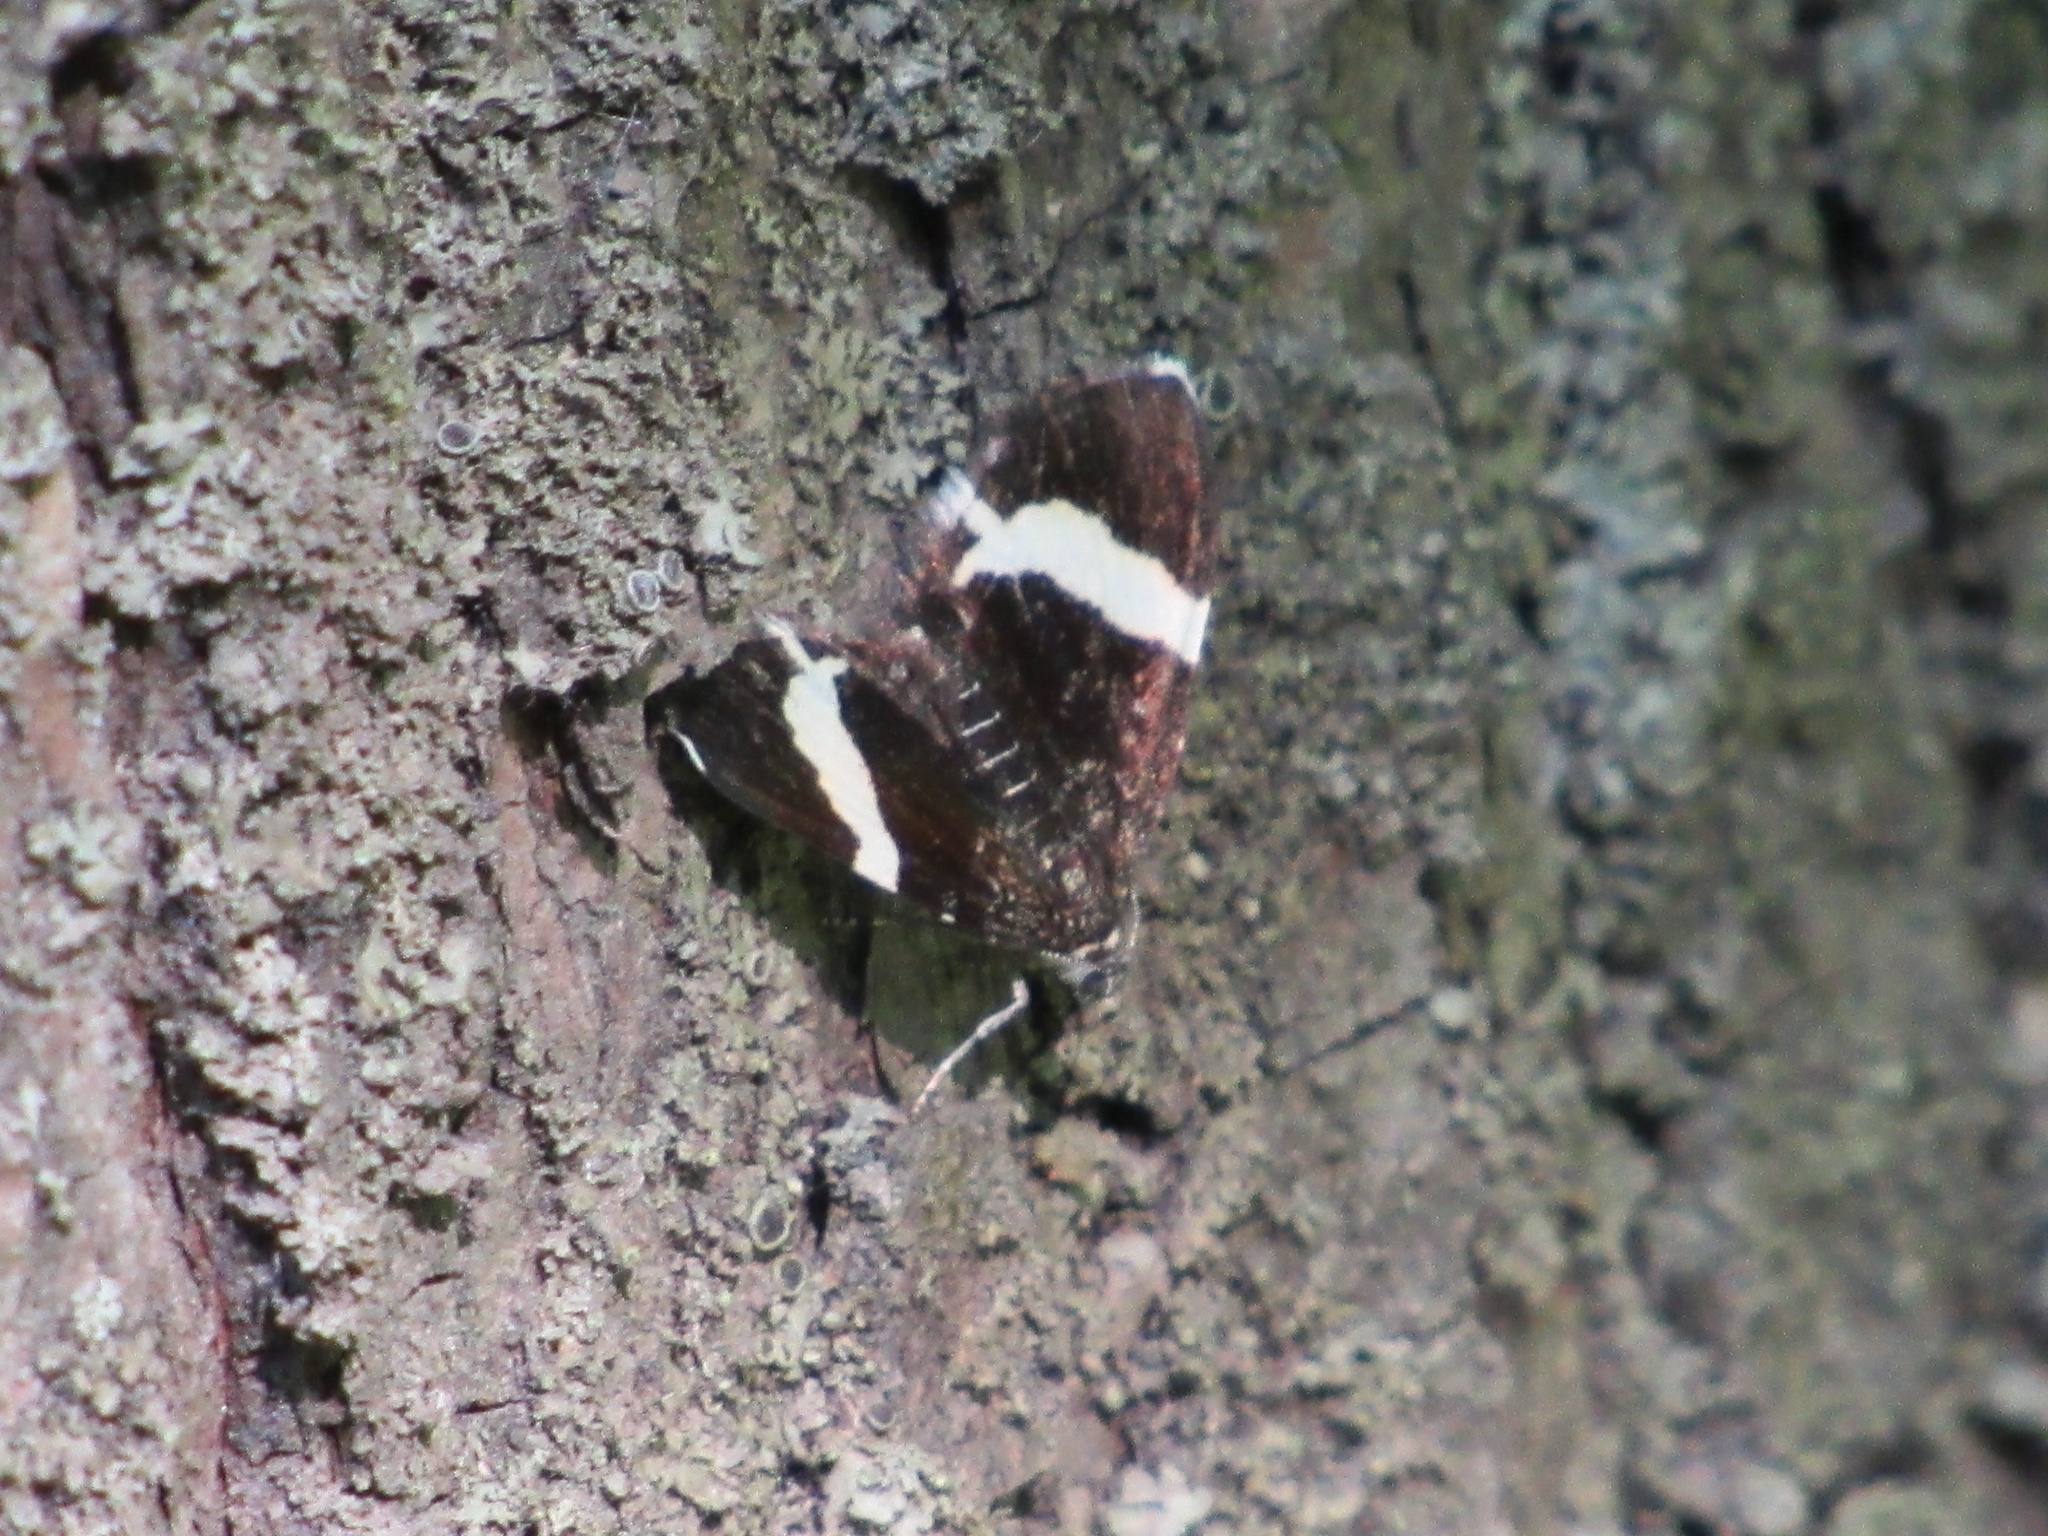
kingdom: Animalia
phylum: Arthropoda
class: Insecta
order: Lepidoptera
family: Geometridae
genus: Trichodezia
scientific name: Trichodezia albovittata
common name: White striped black
